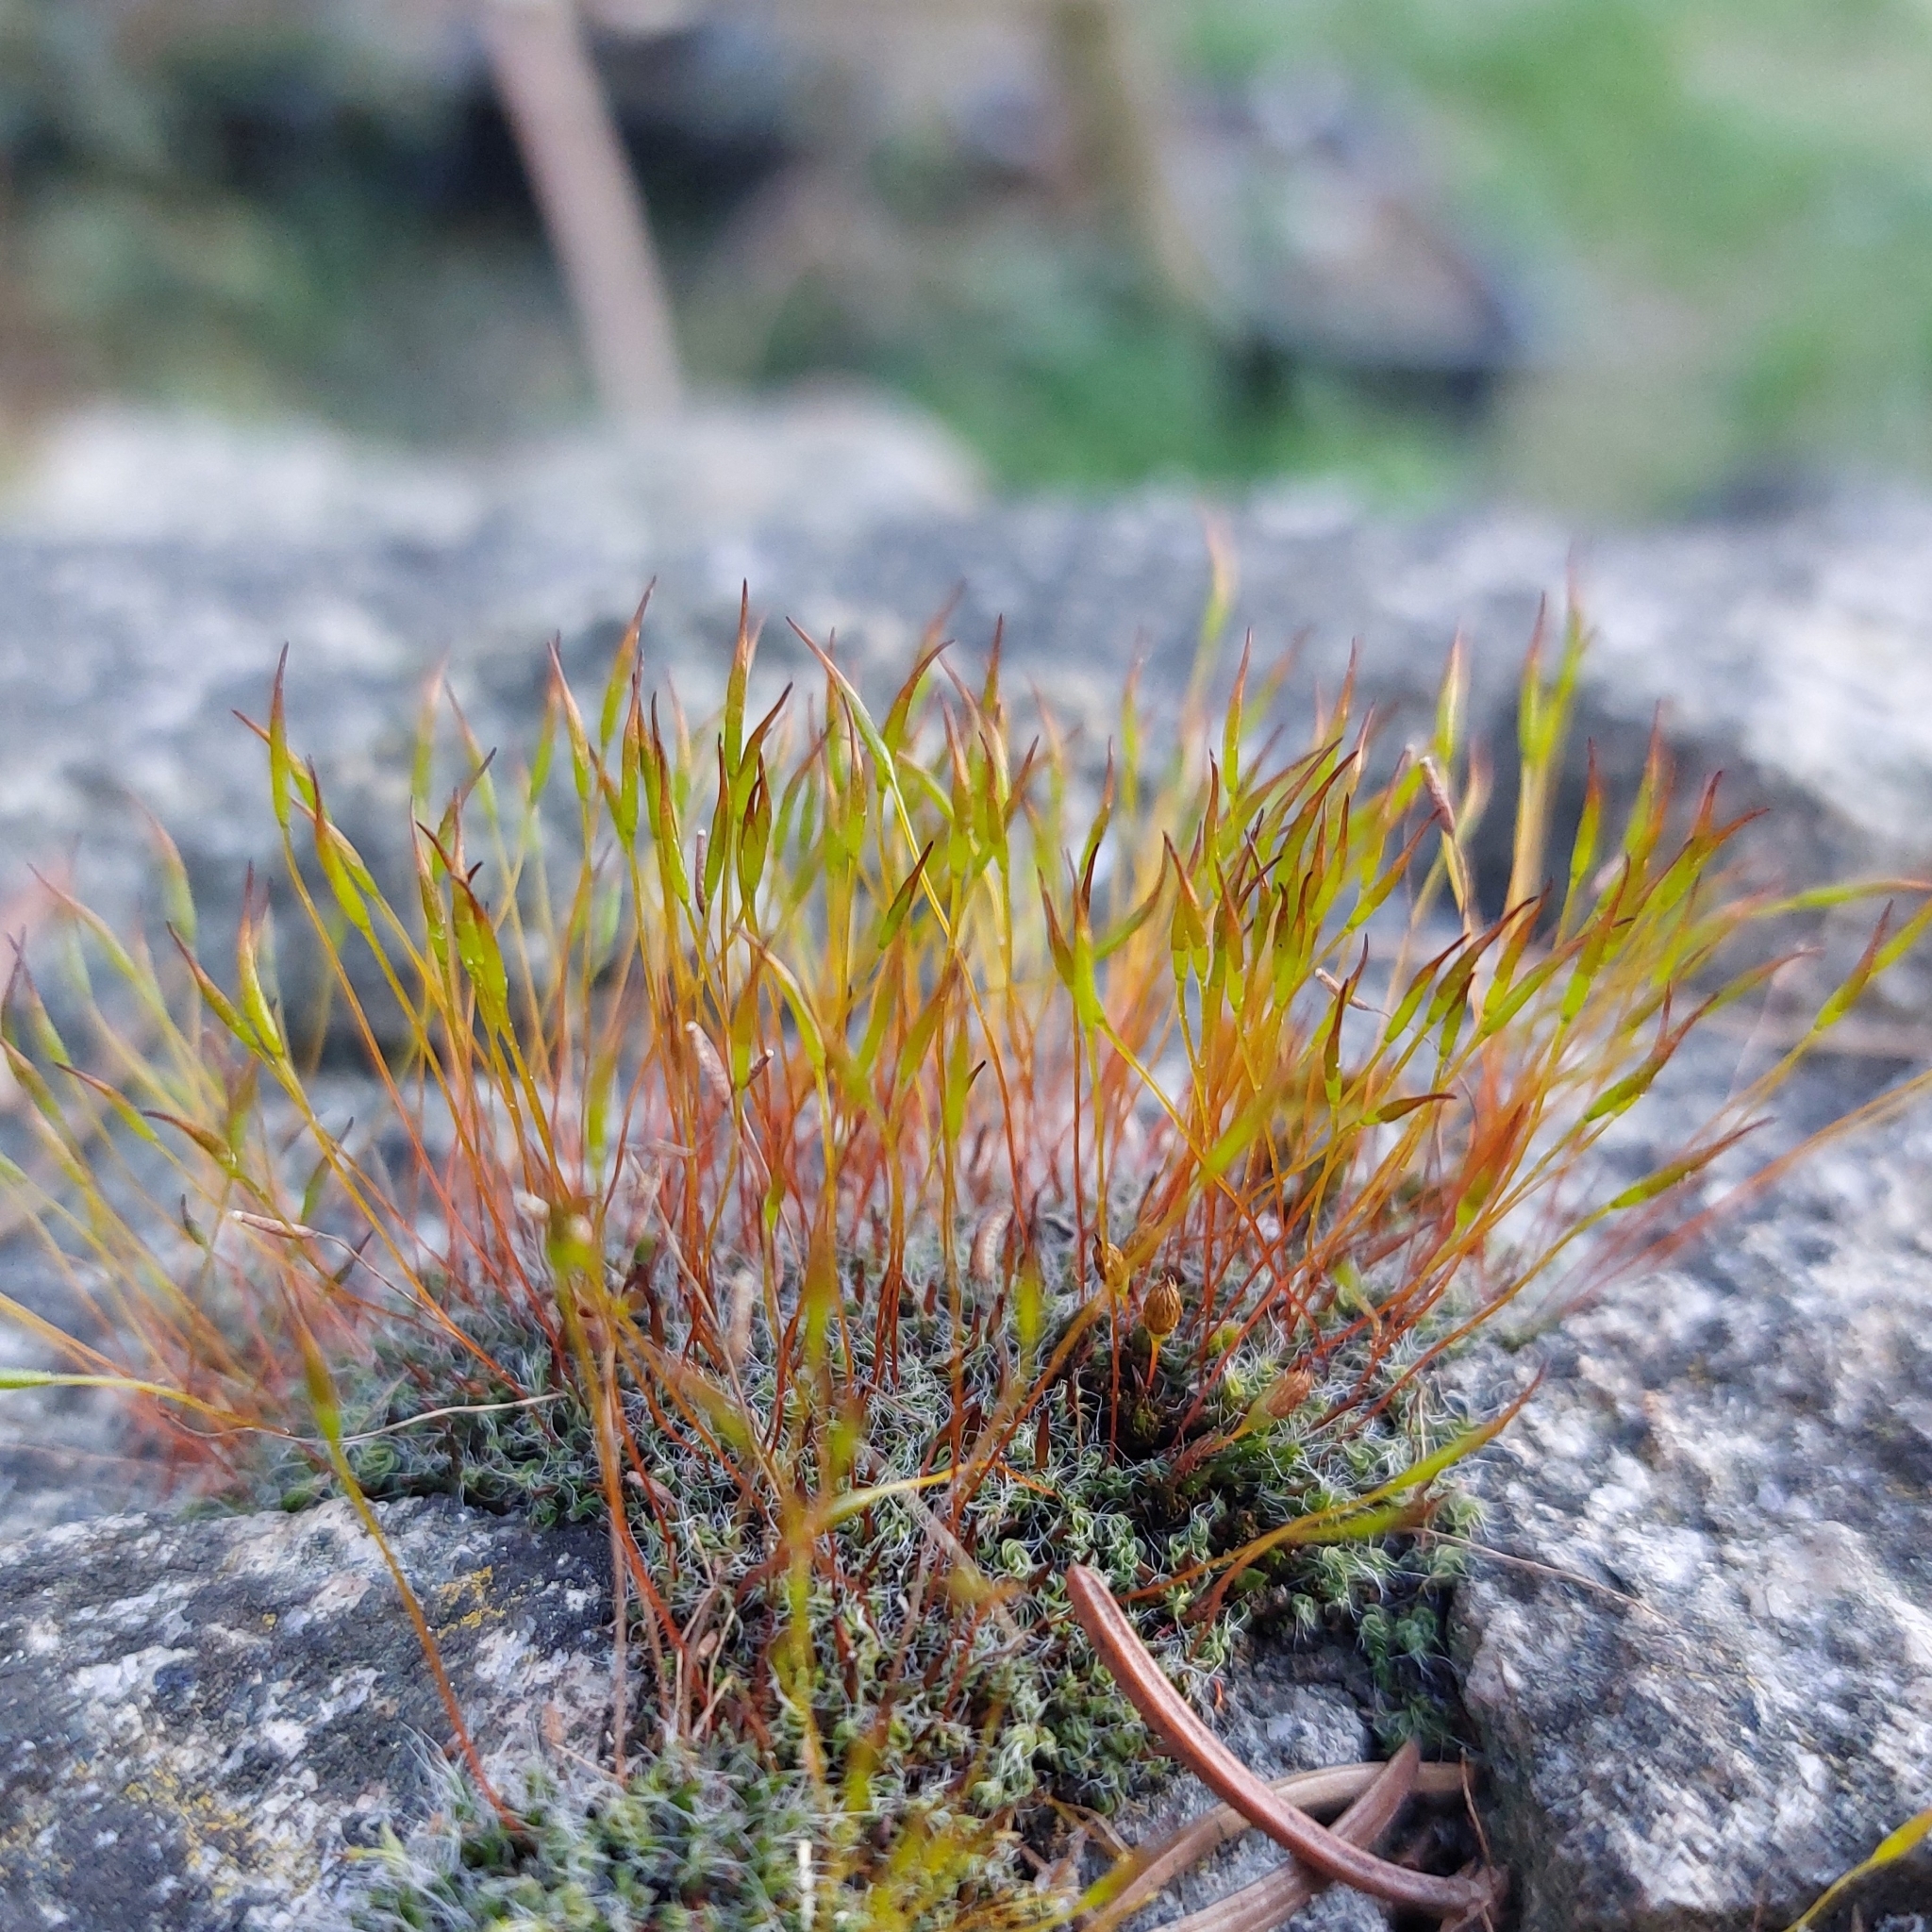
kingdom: Plantae
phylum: Bryophyta
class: Bryopsida
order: Pottiales
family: Pottiaceae
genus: Tortula
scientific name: Tortula muralis
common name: Wall screw-moss
